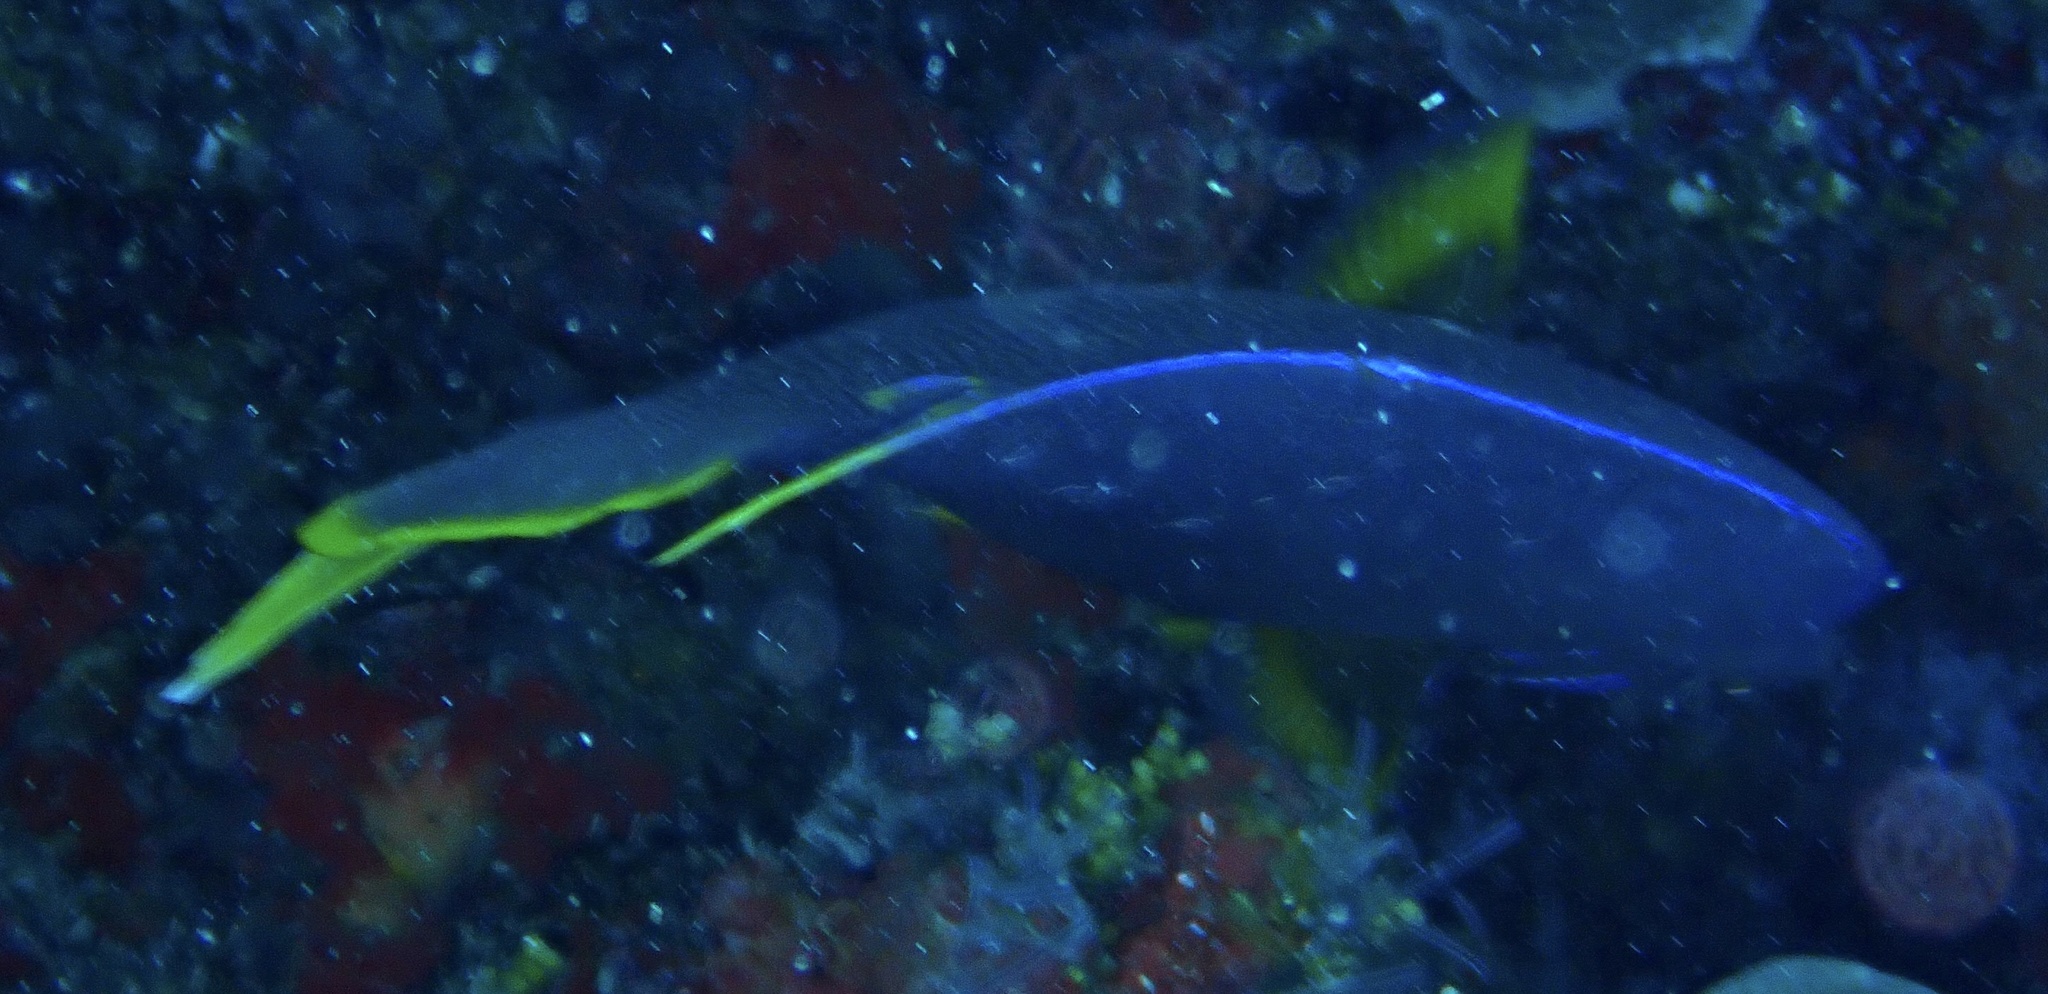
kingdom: Animalia
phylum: Chordata
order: Perciformes
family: Pomacanthidae
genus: Holacanthus
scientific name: Holacanthus bermudensis
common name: Blue angelfish
